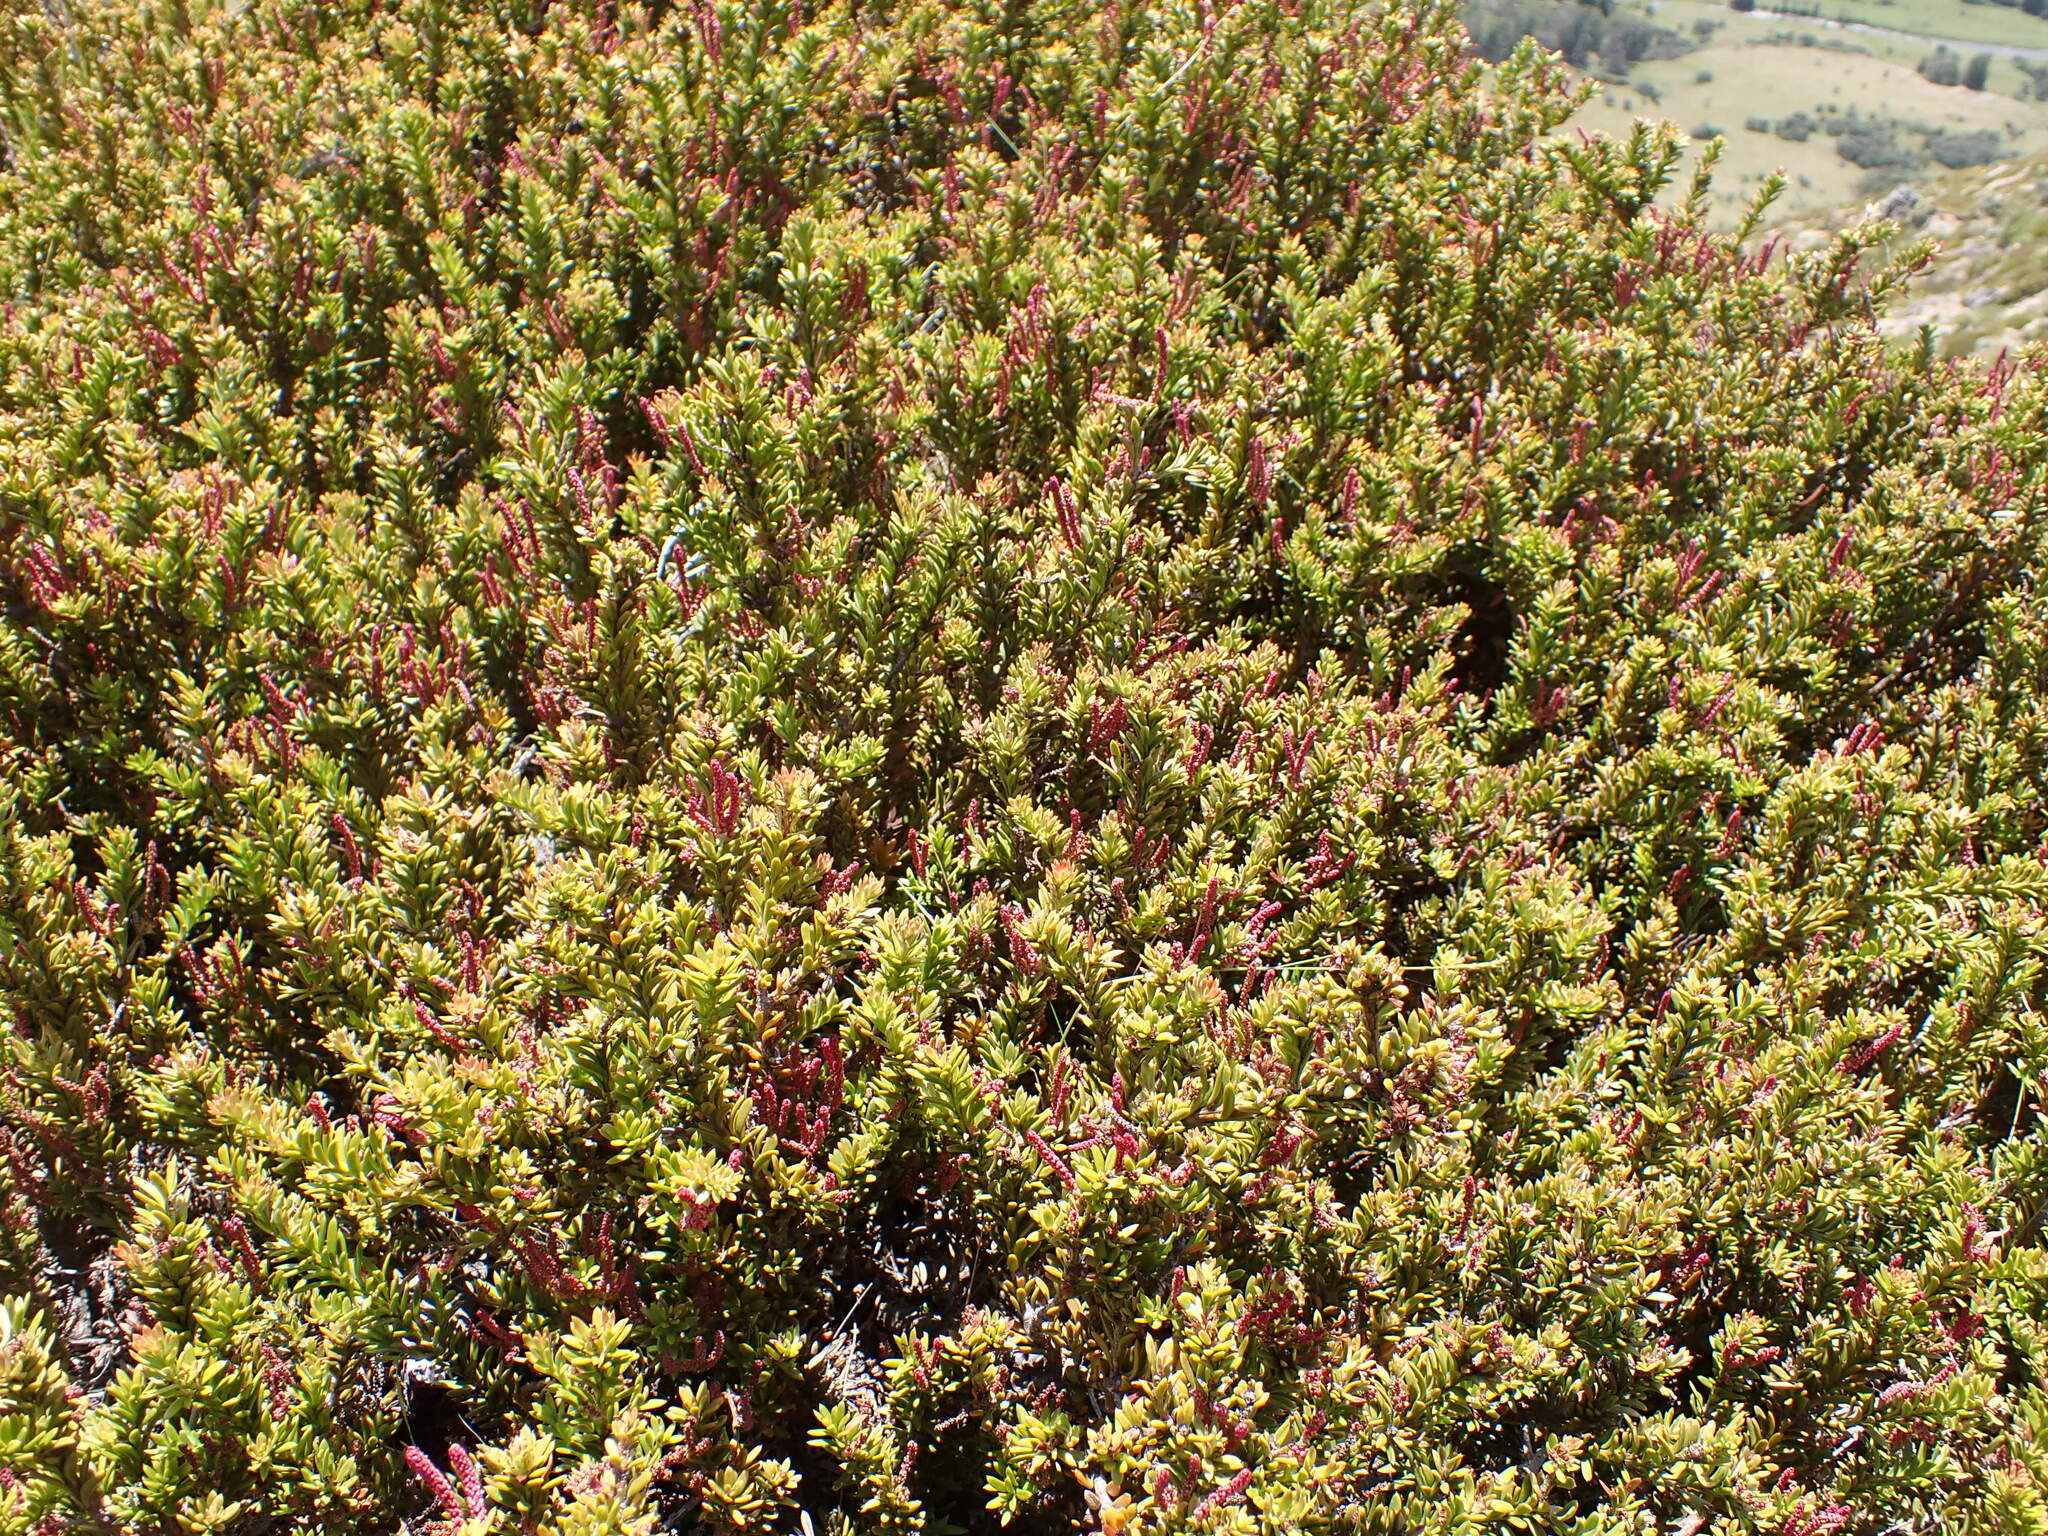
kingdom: Plantae
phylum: Tracheophyta
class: Pinopsida
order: Pinales
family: Podocarpaceae
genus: Podocarpus
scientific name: Podocarpus nivalis
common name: Alpine totara
